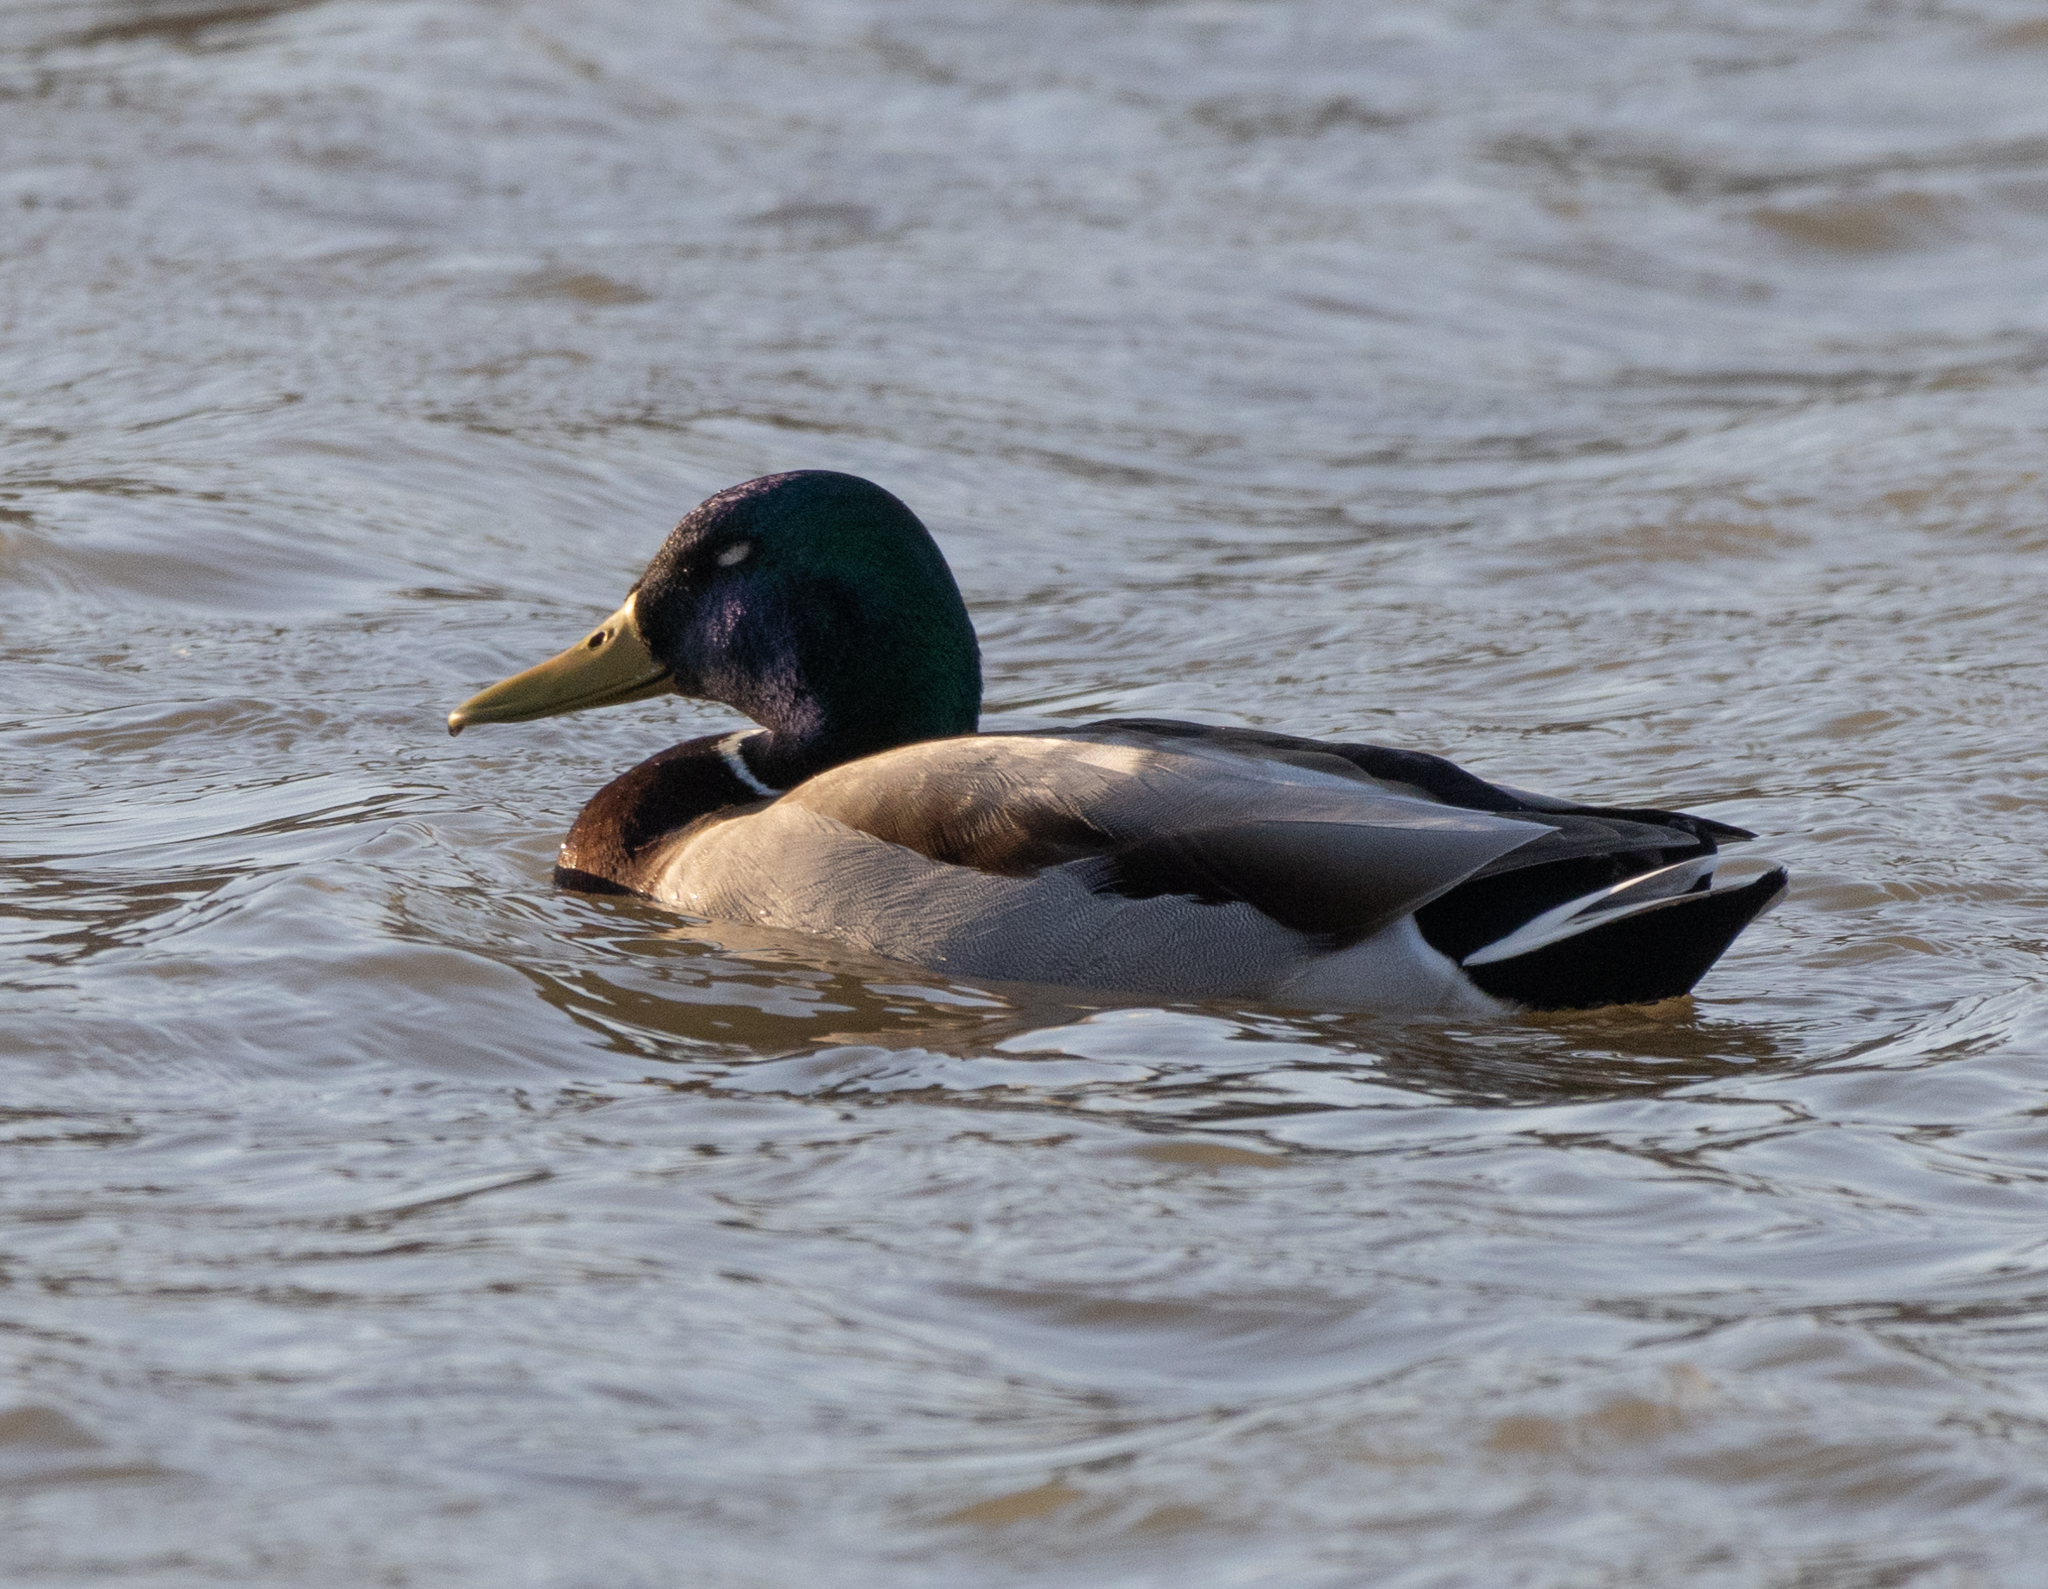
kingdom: Animalia
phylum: Chordata
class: Aves
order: Anseriformes
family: Anatidae
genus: Anas
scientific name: Anas platyrhynchos
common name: Mallard
